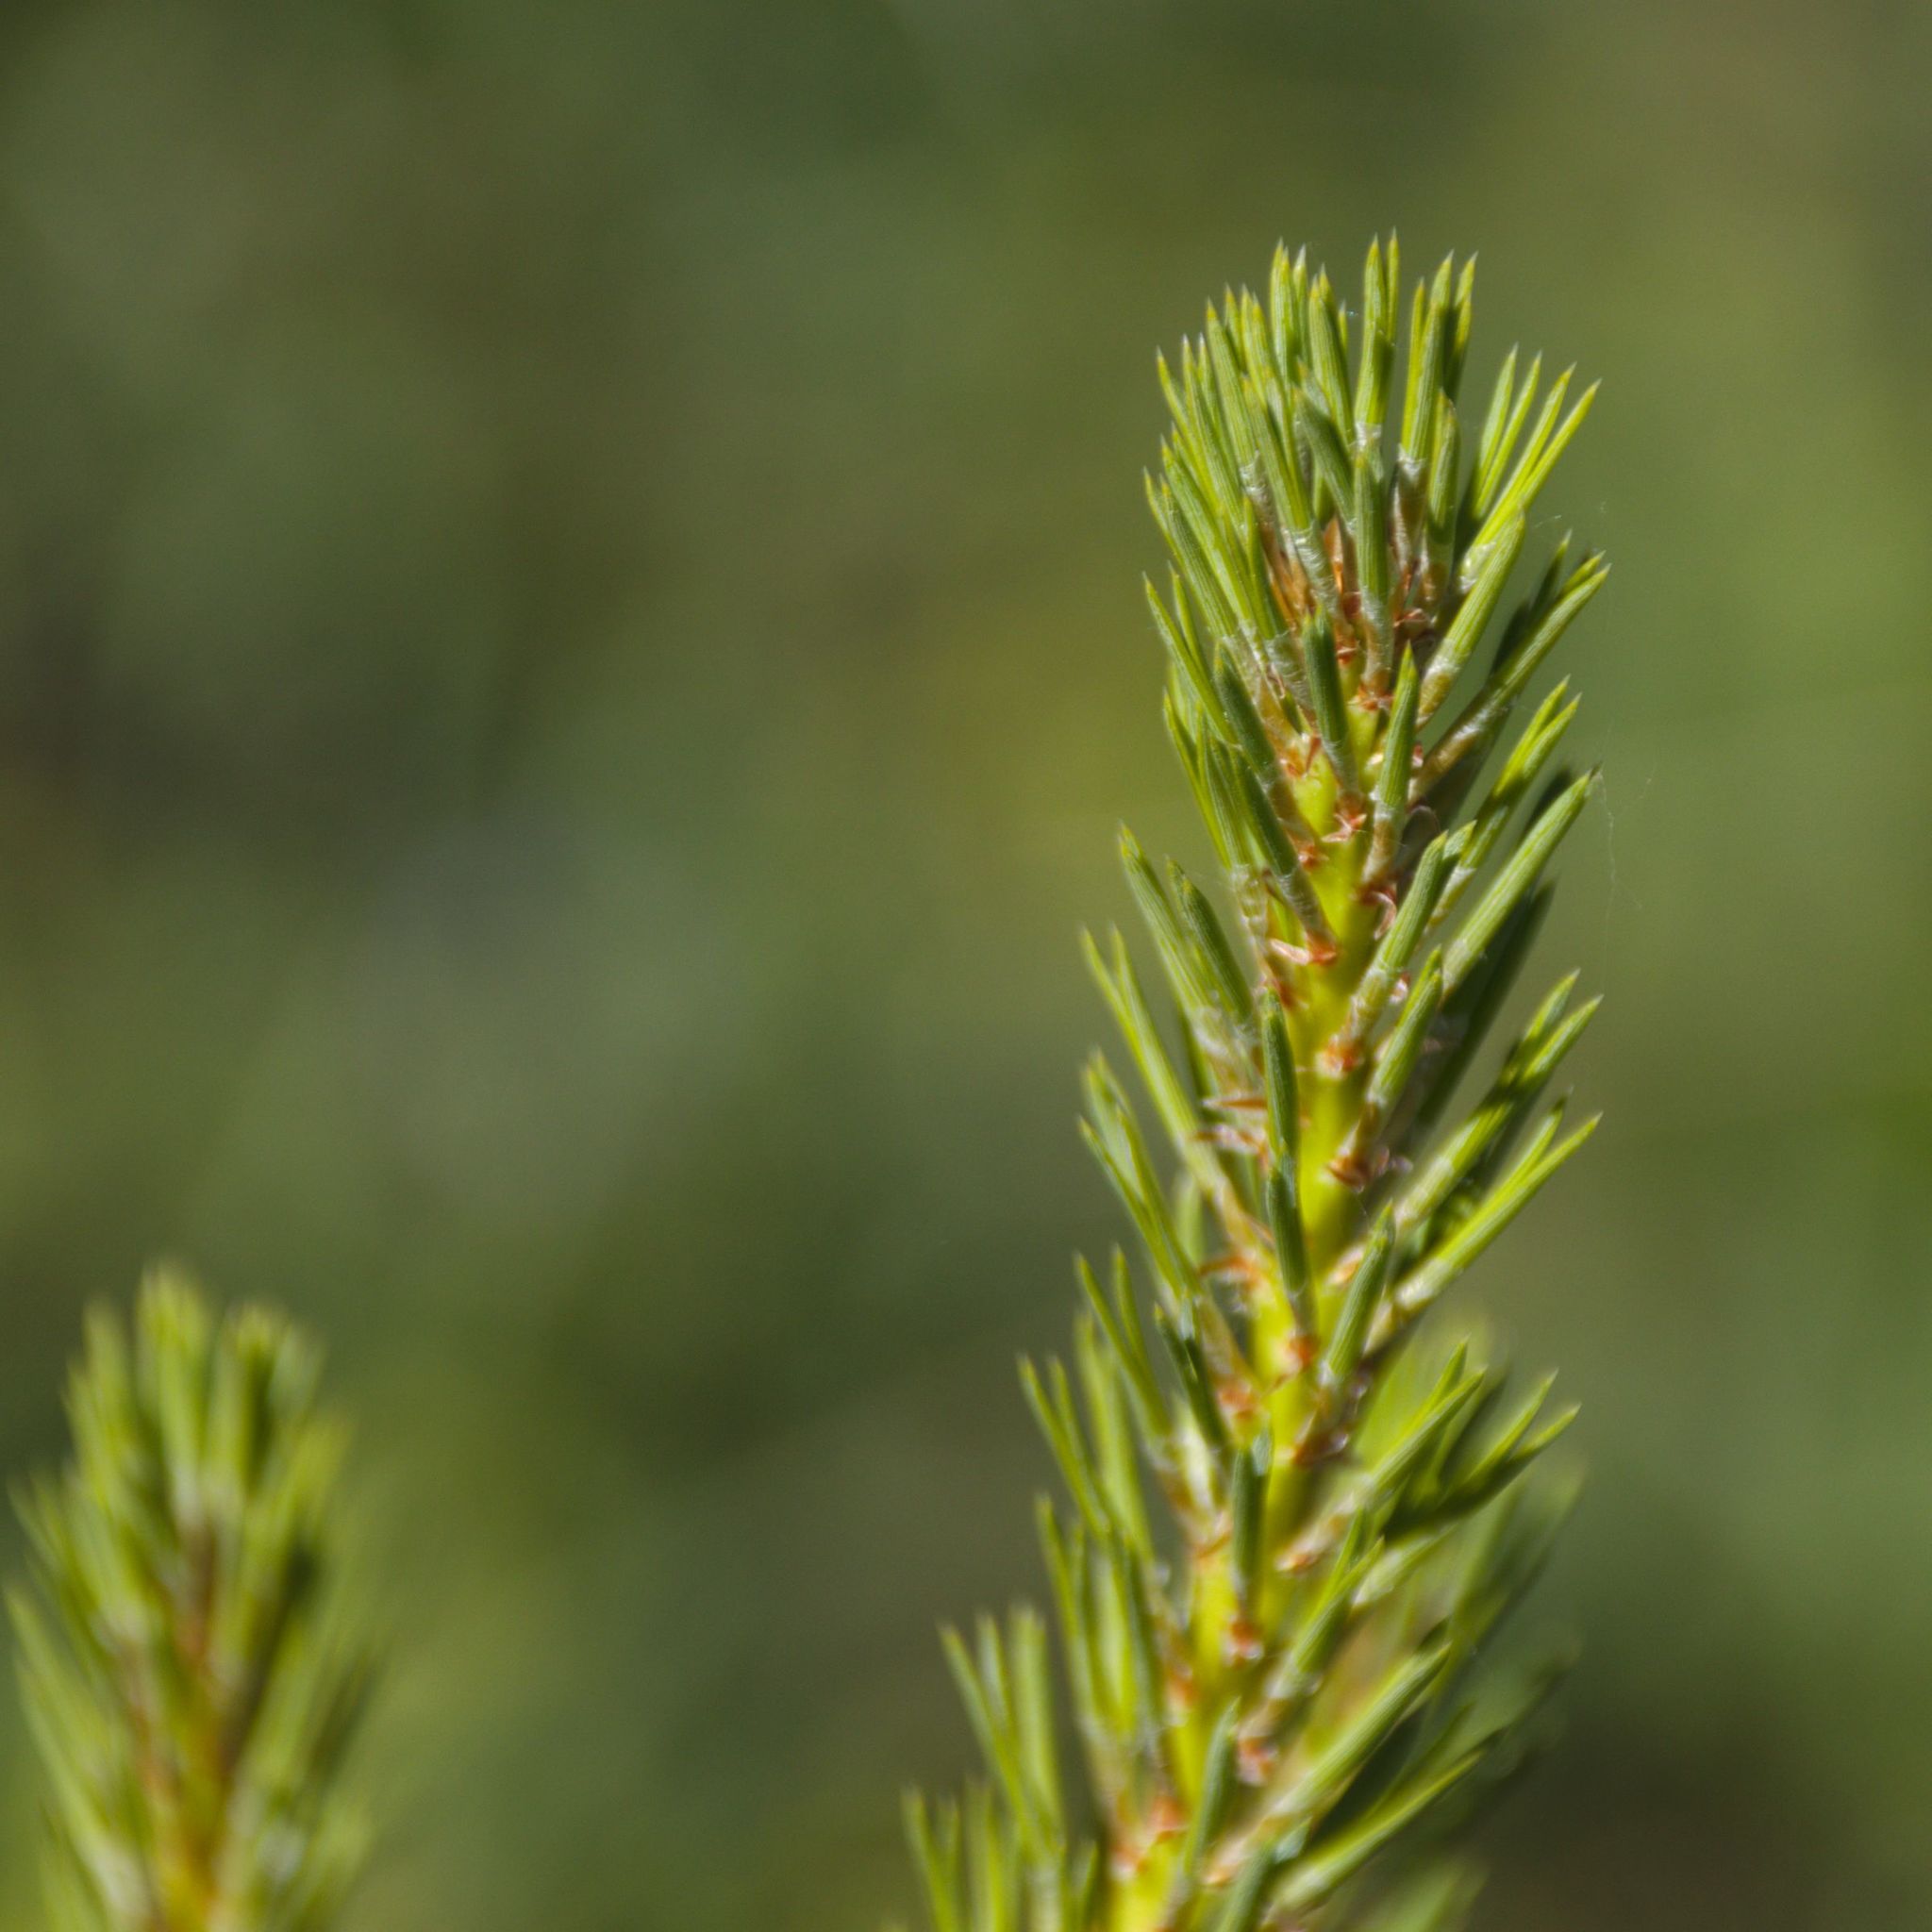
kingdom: Plantae
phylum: Tracheophyta
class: Pinopsida
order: Pinales
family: Pinaceae
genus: Pinus
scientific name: Pinus sylvestris
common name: Scots pine
